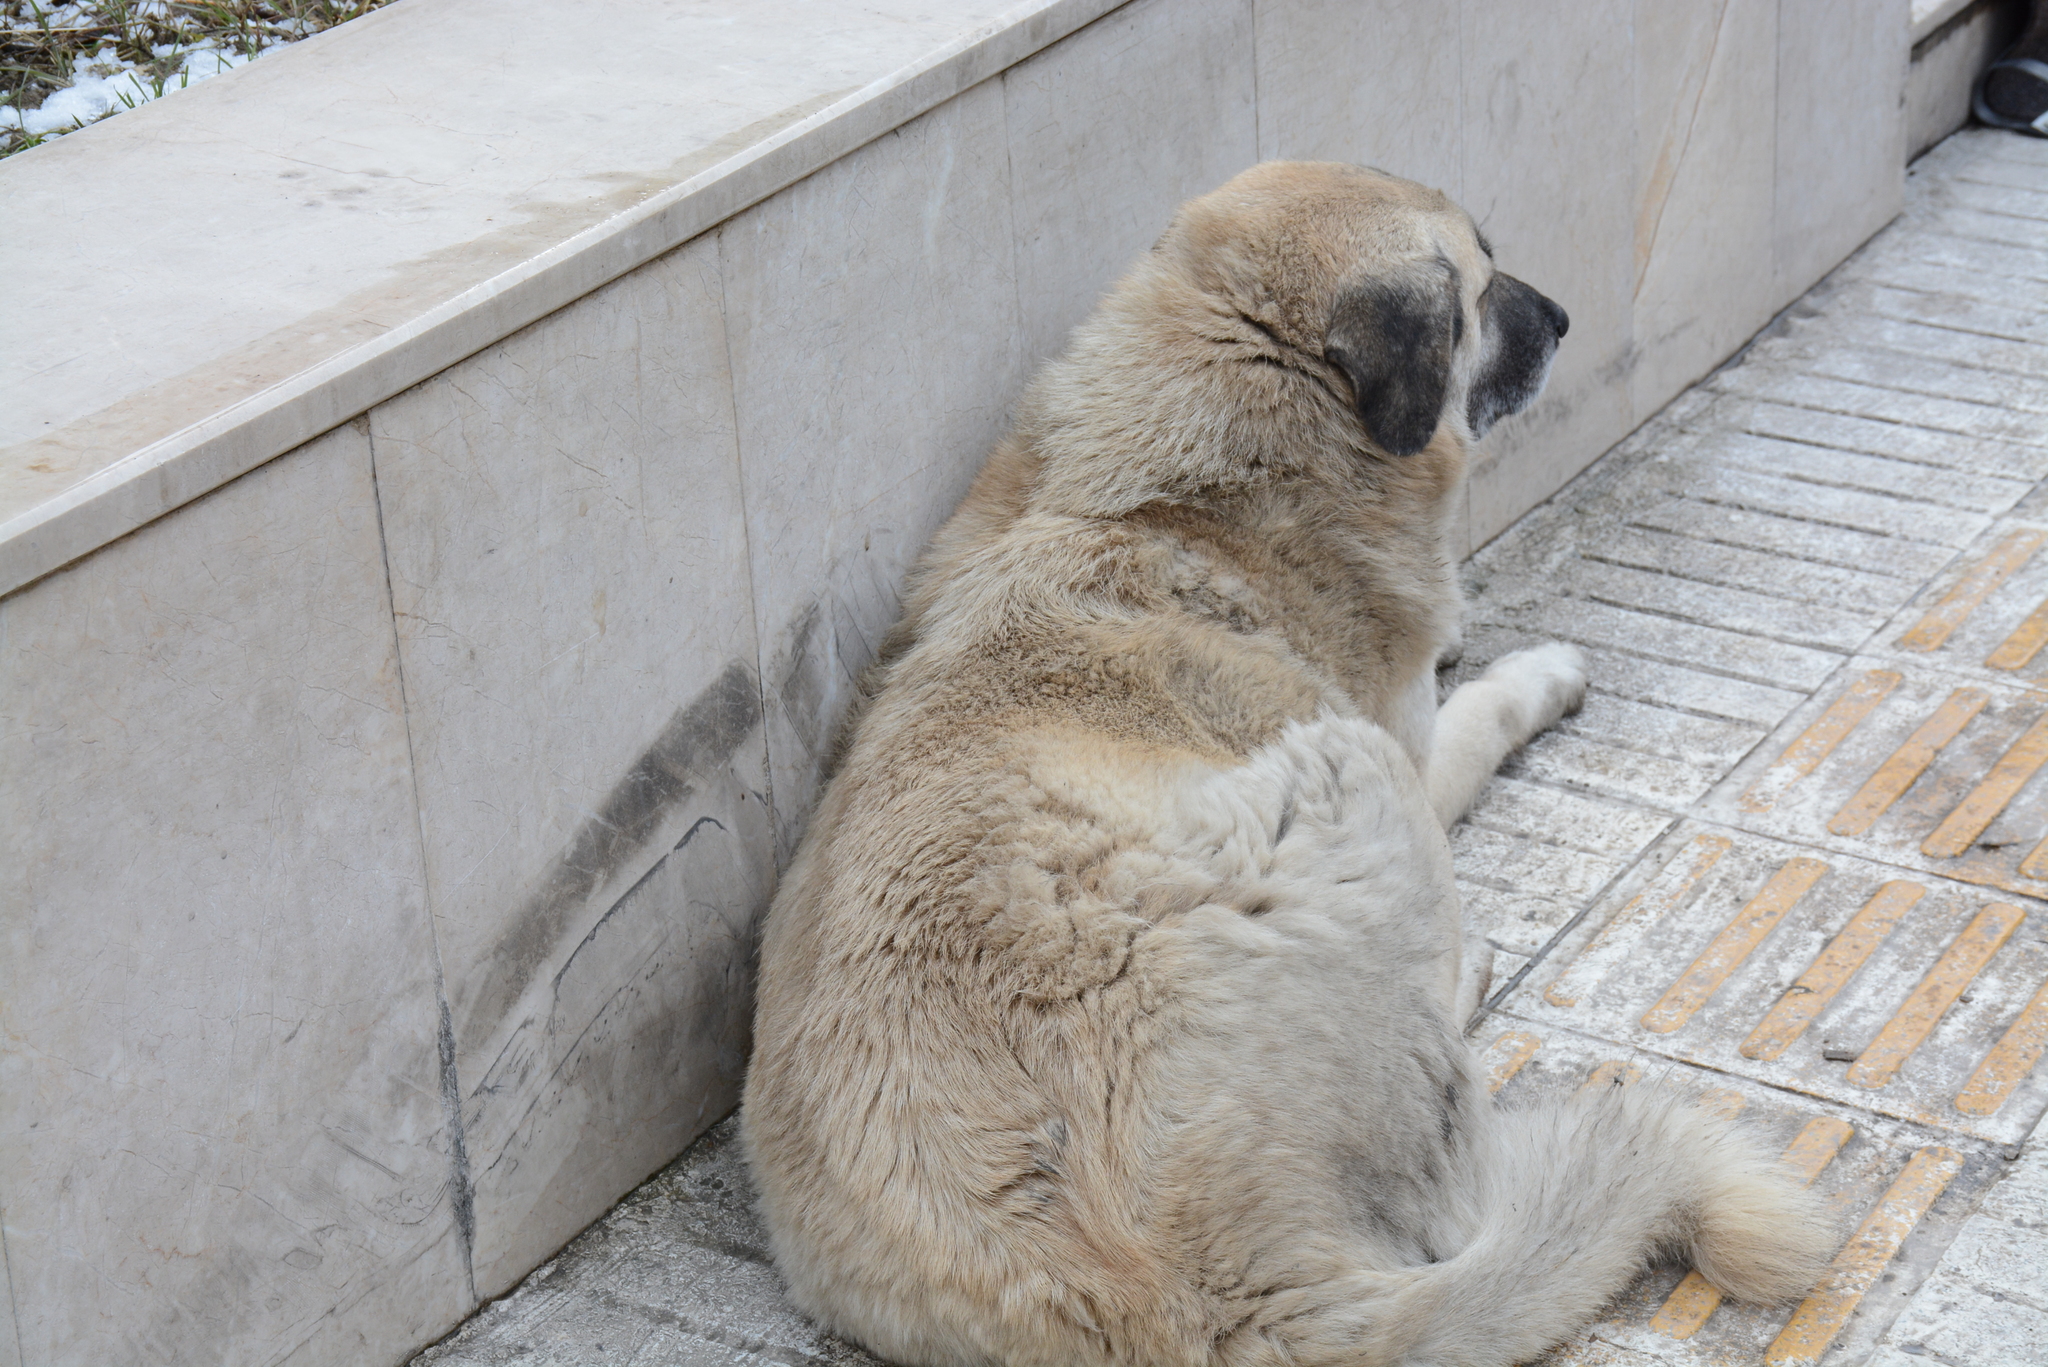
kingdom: Animalia
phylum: Chordata
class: Mammalia
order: Carnivora
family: Canidae
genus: Canis
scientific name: Canis lupus
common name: Gray wolf
